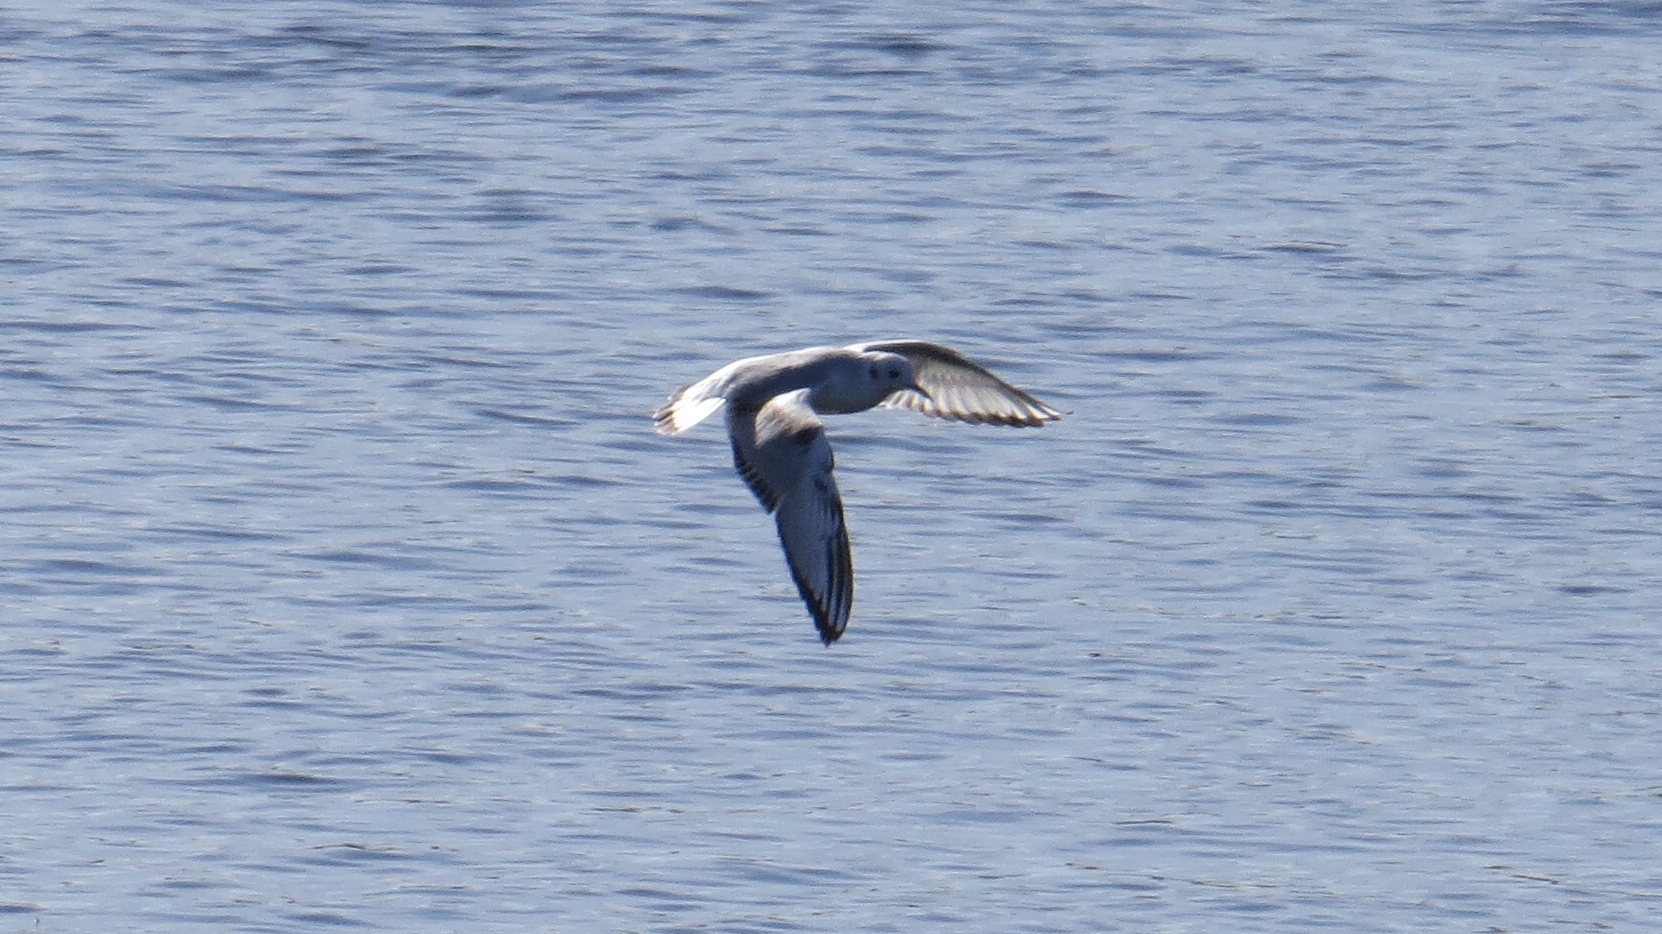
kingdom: Animalia
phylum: Chordata
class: Aves
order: Charadriiformes
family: Laridae
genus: Chroicocephalus
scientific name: Chroicocephalus philadelphia
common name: Bonaparte's gull
